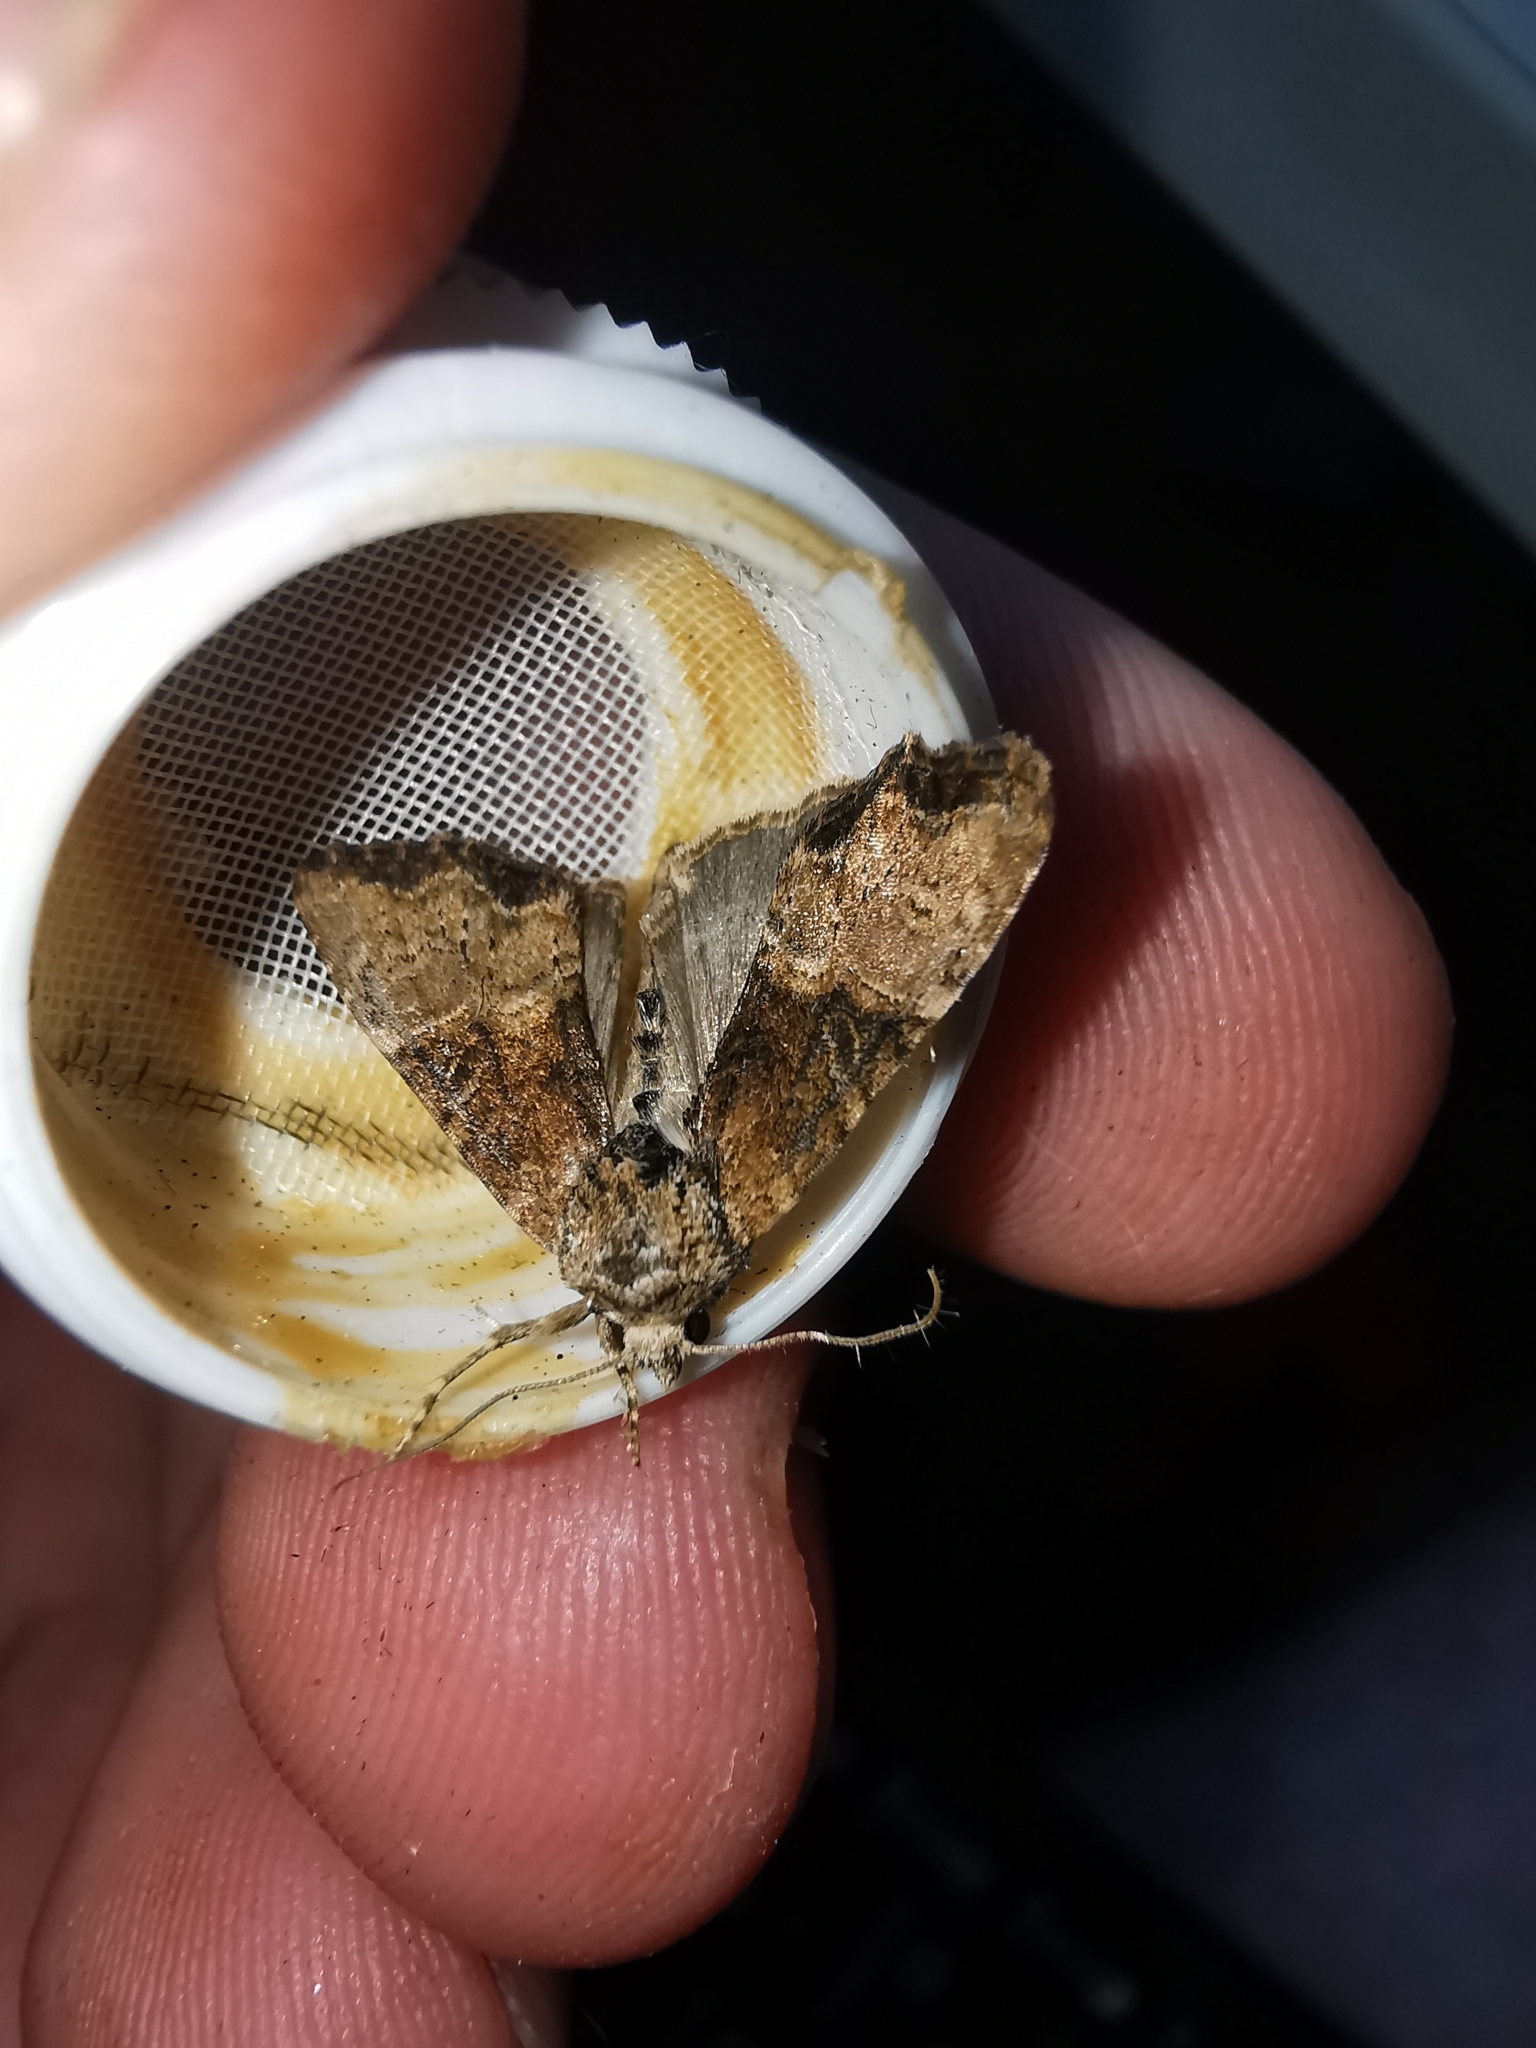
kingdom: Animalia
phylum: Arthropoda
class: Insecta
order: Lepidoptera
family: Noctuidae
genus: Mesoligia
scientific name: Mesoligia furuncula
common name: Cloaked minor
